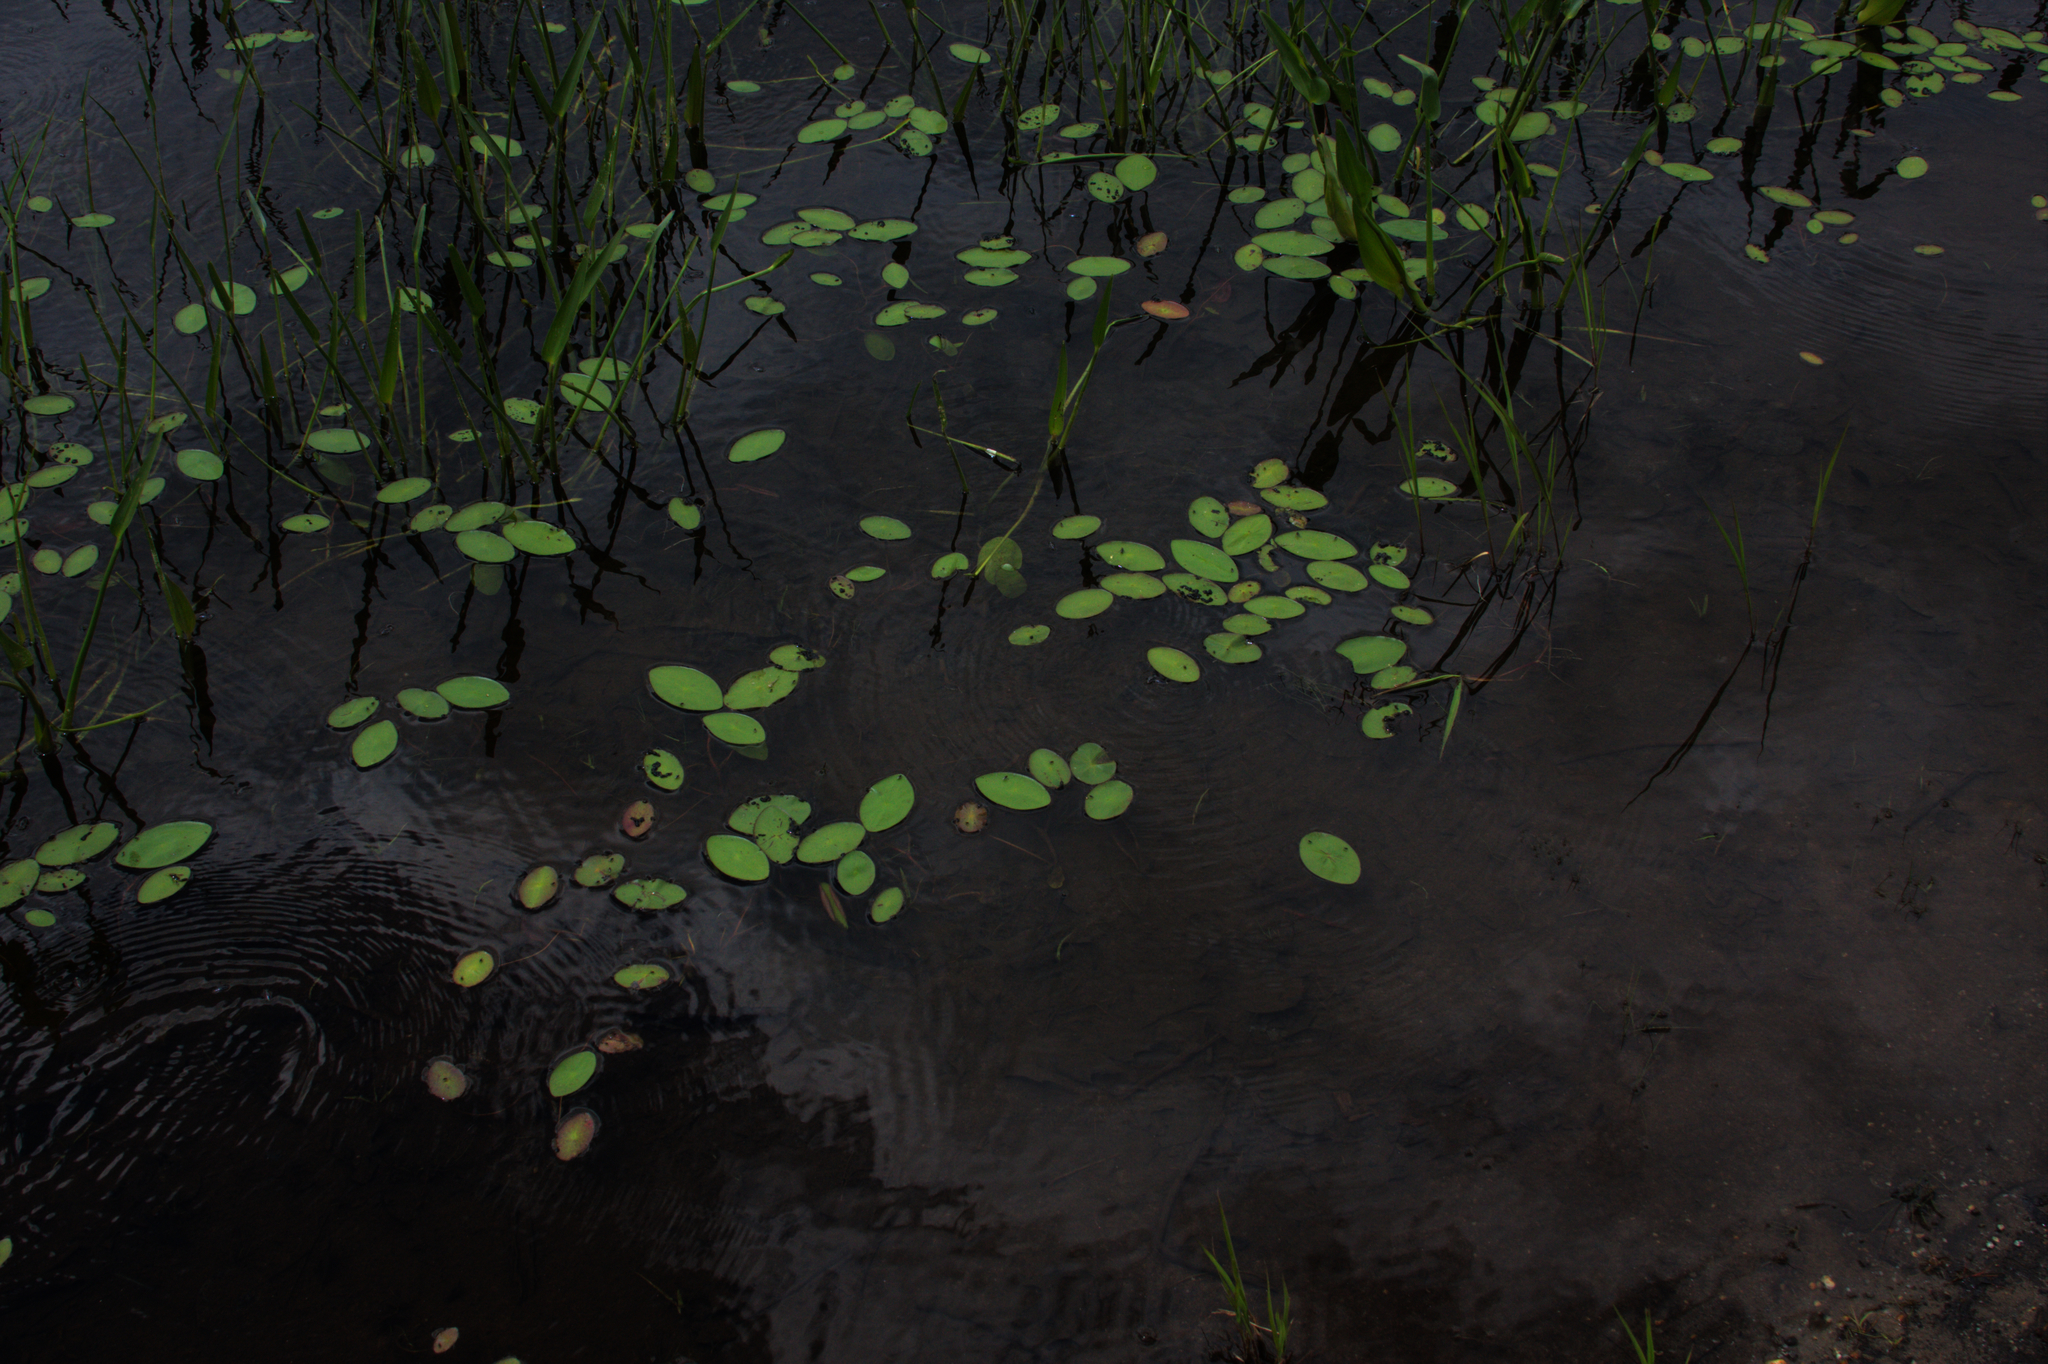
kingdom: Plantae
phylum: Tracheophyta
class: Magnoliopsida
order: Nymphaeales
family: Cabombaceae
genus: Brasenia
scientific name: Brasenia schreberi
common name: Water-shield
